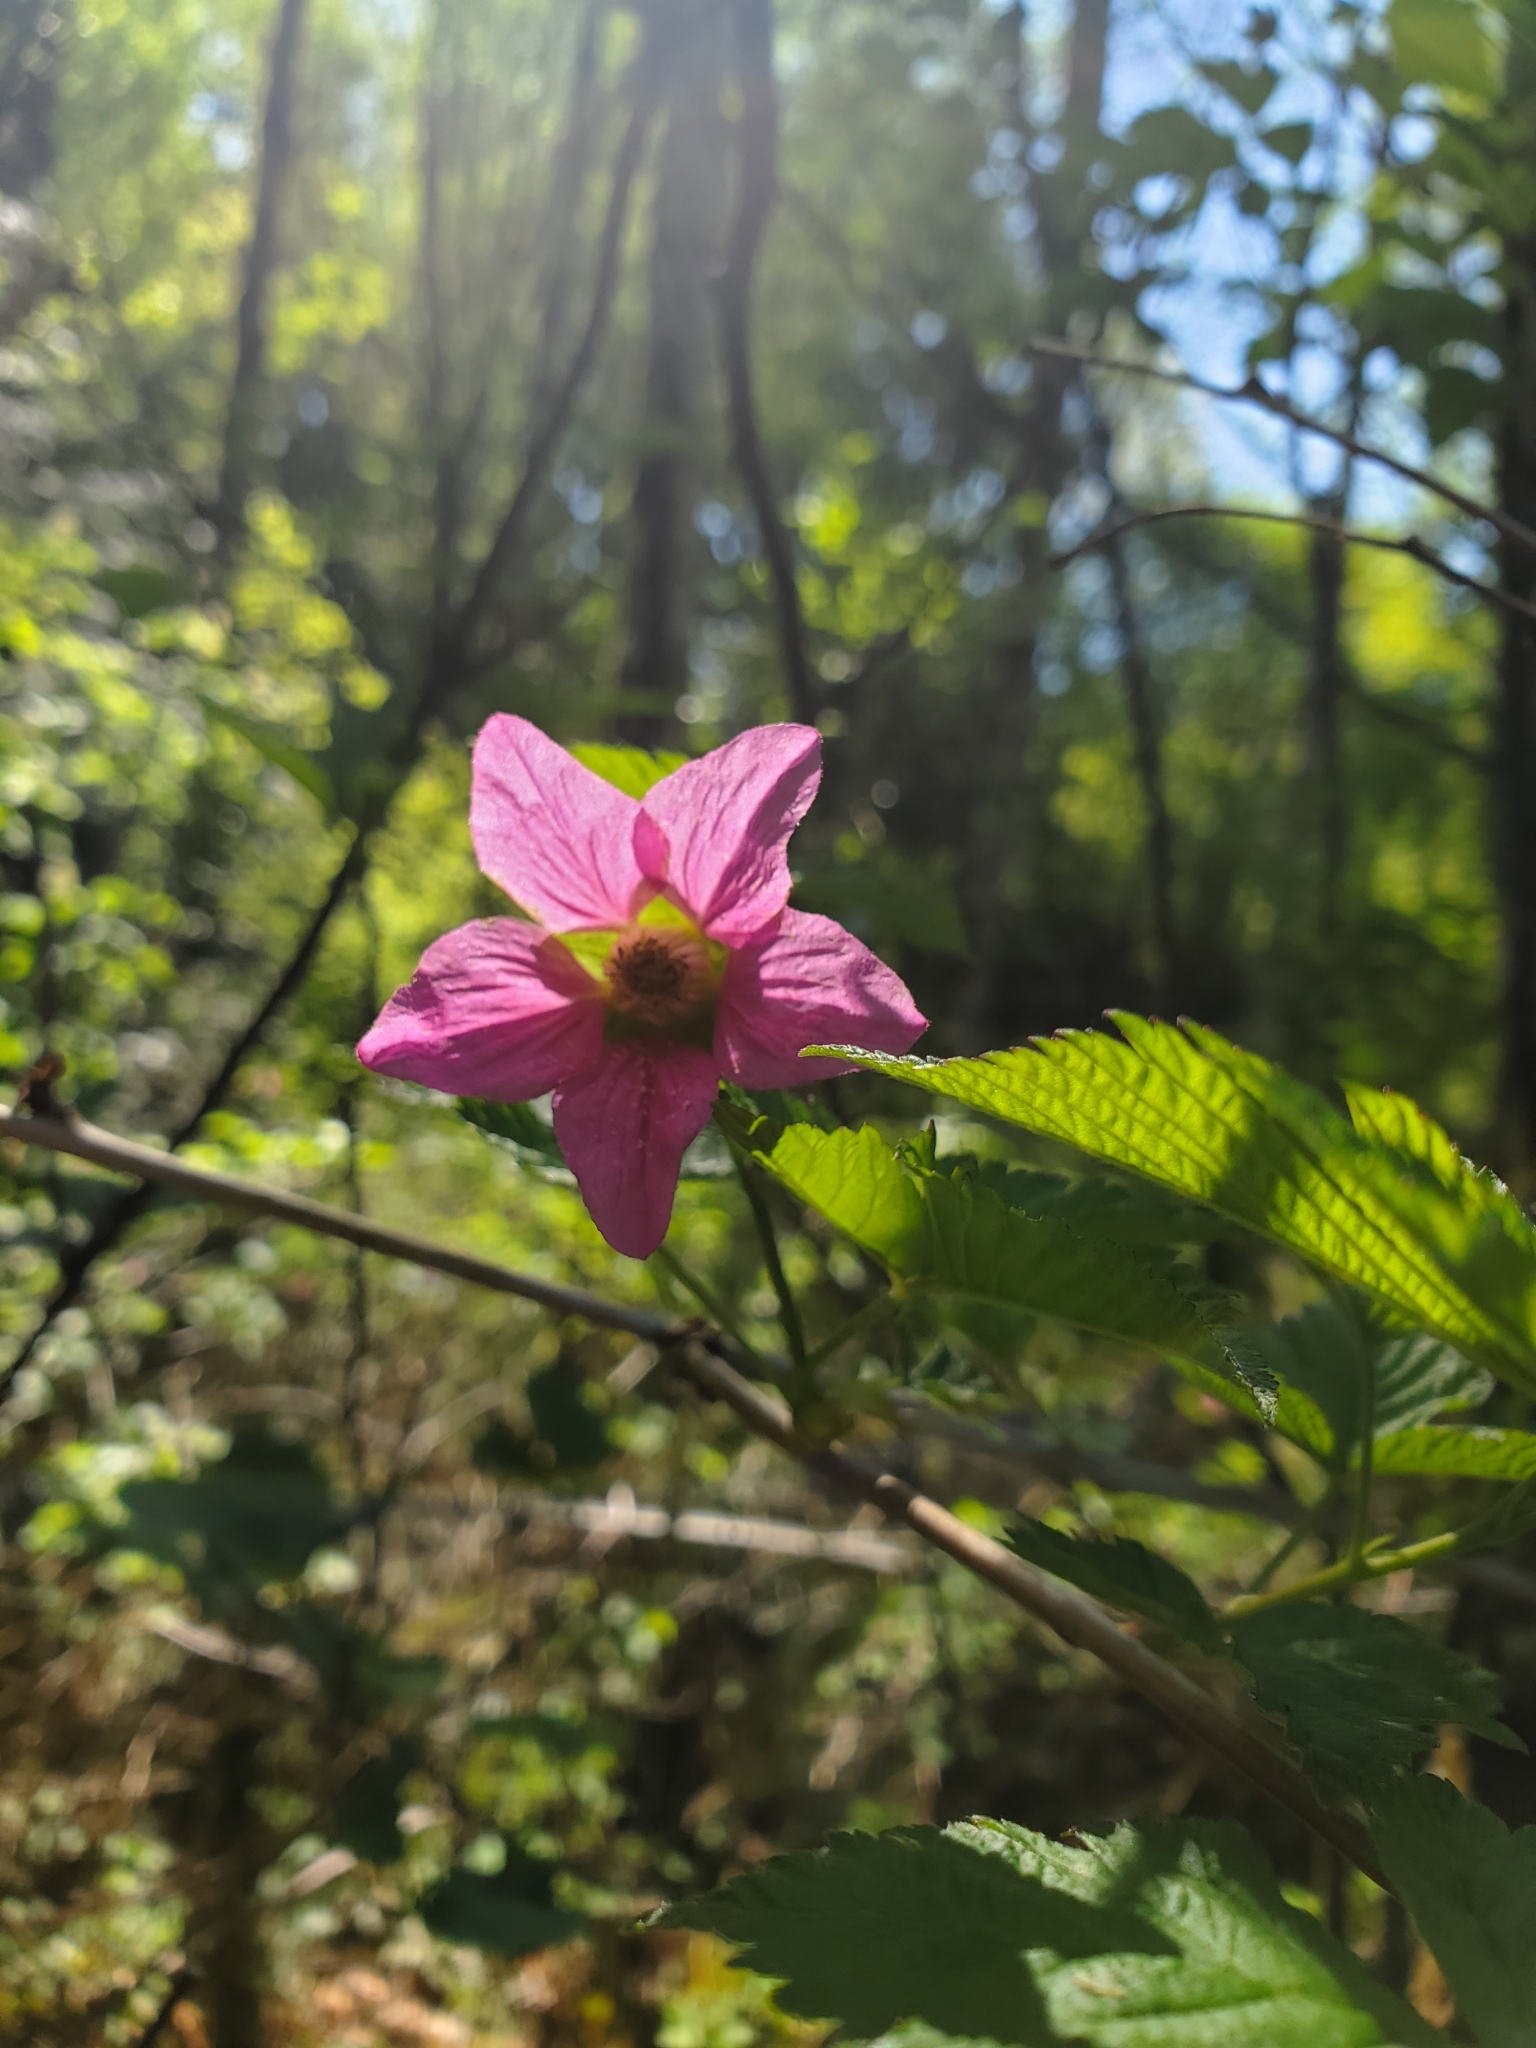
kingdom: Plantae
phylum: Tracheophyta
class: Magnoliopsida
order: Rosales
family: Rosaceae
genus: Rubus
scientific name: Rubus spectabilis
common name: Salmonberry
